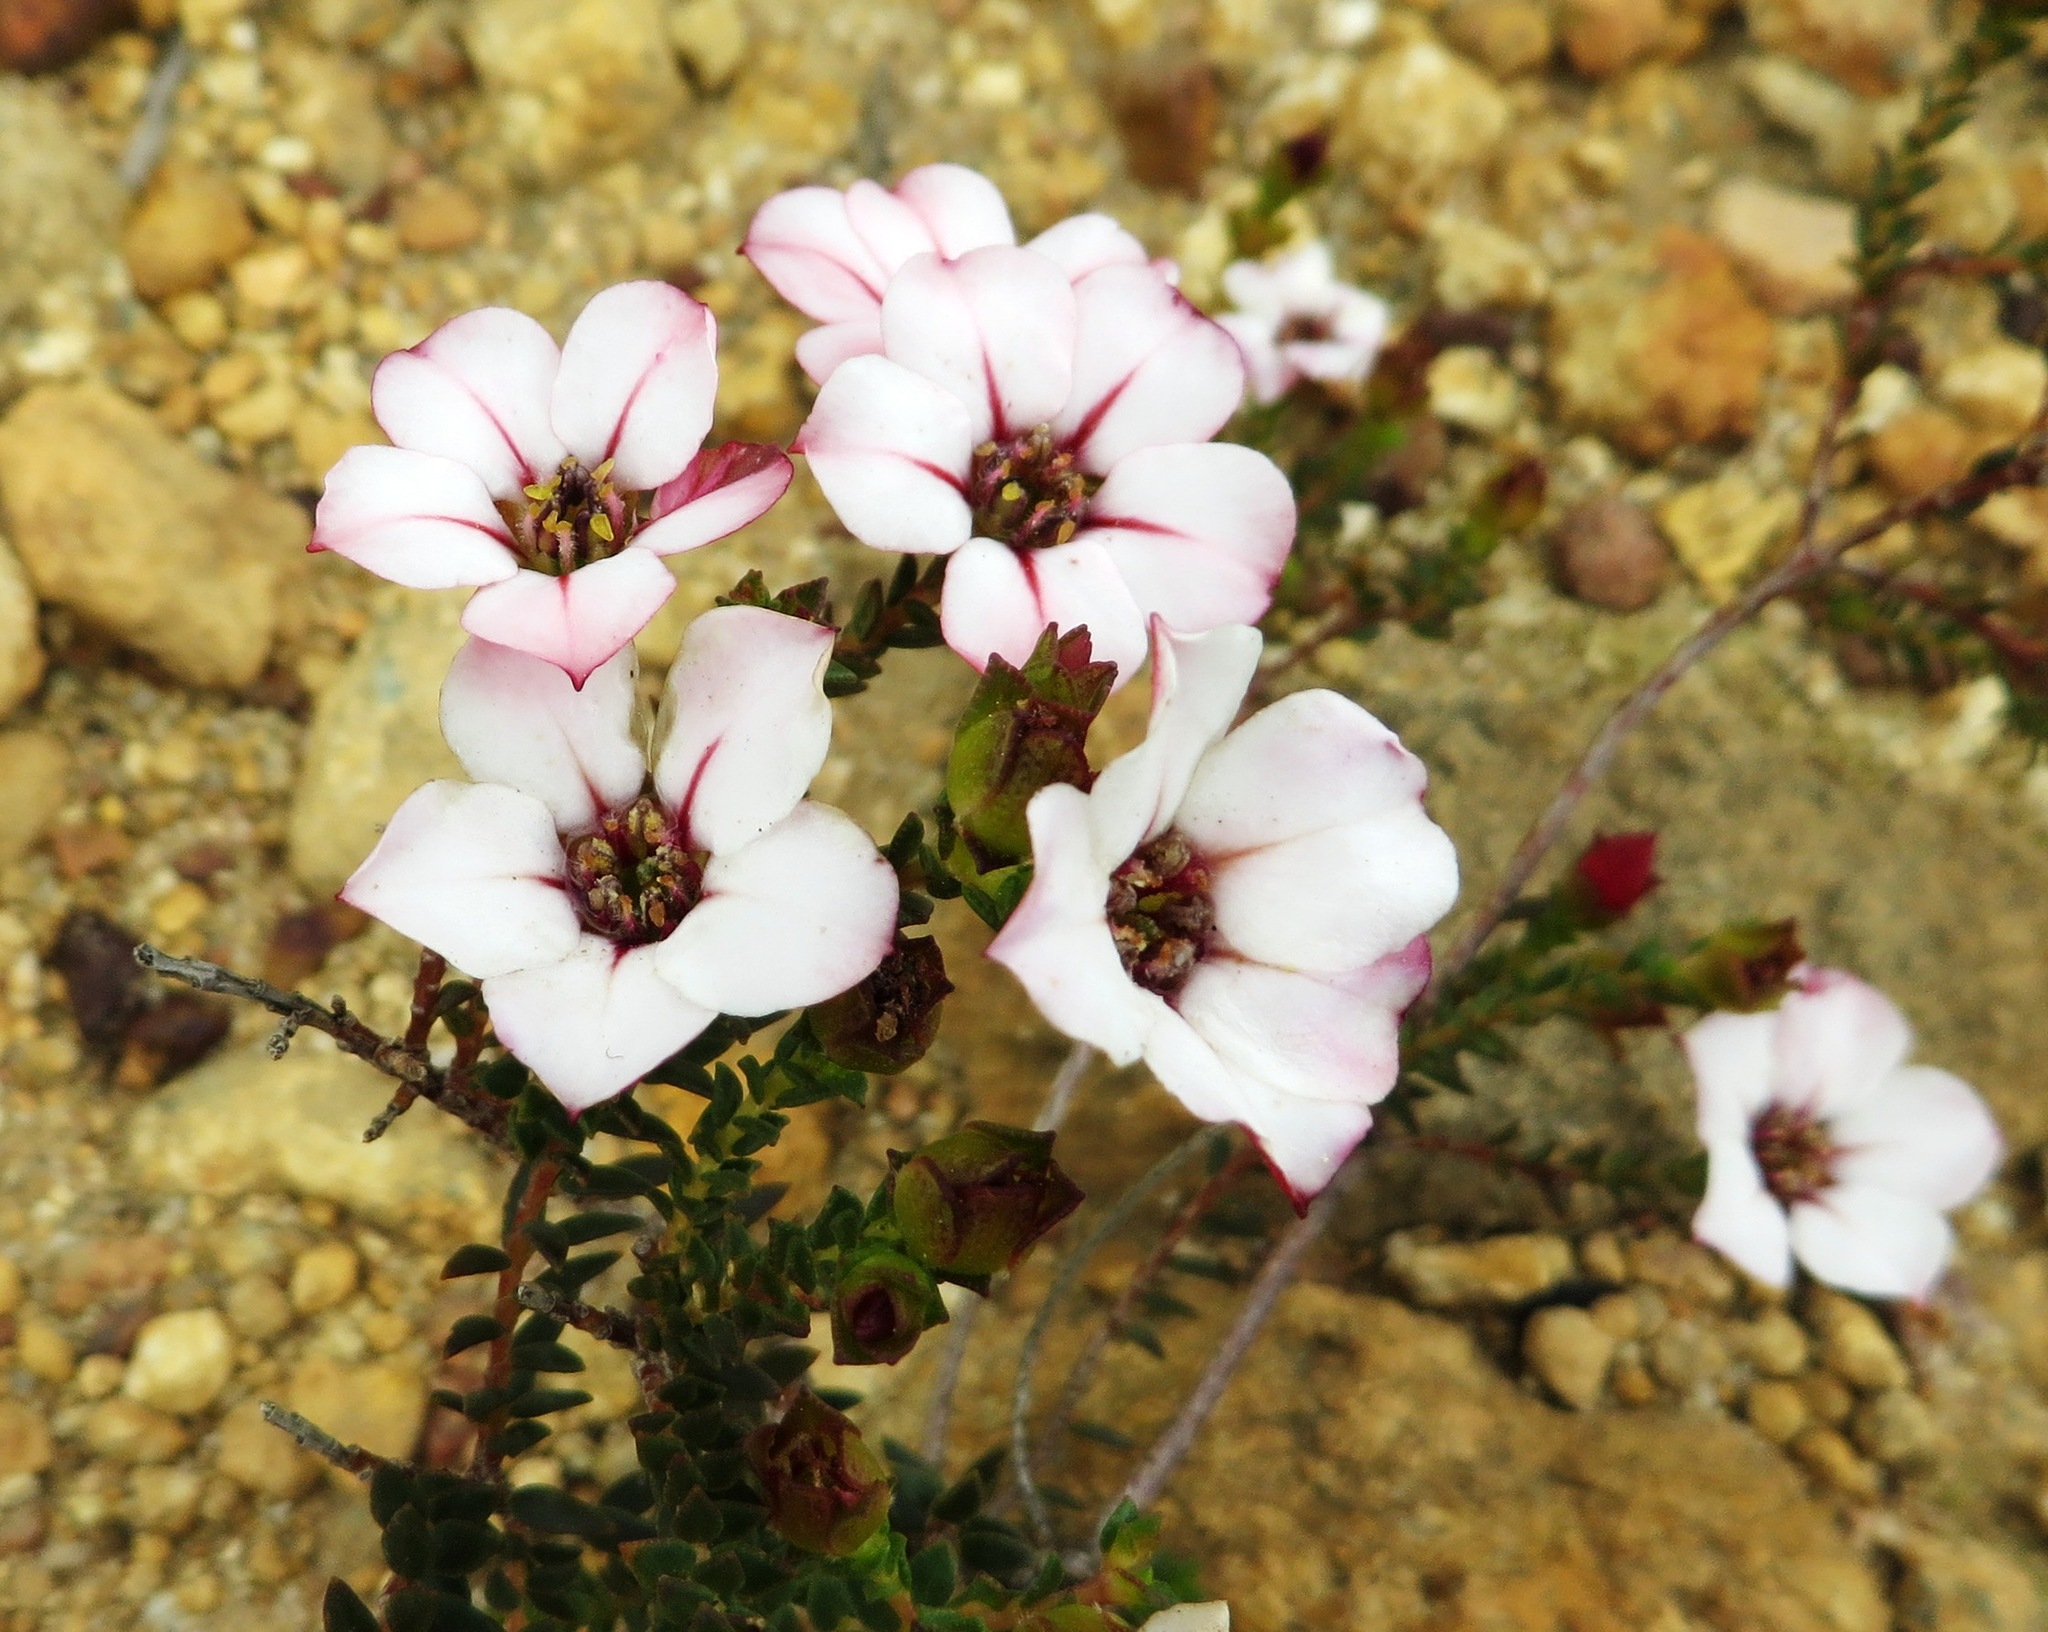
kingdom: Plantae
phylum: Tracheophyta
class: Magnoliopsida
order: Sapindales
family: Rutaceae
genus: Adenandra
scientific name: Adenandra villosa
